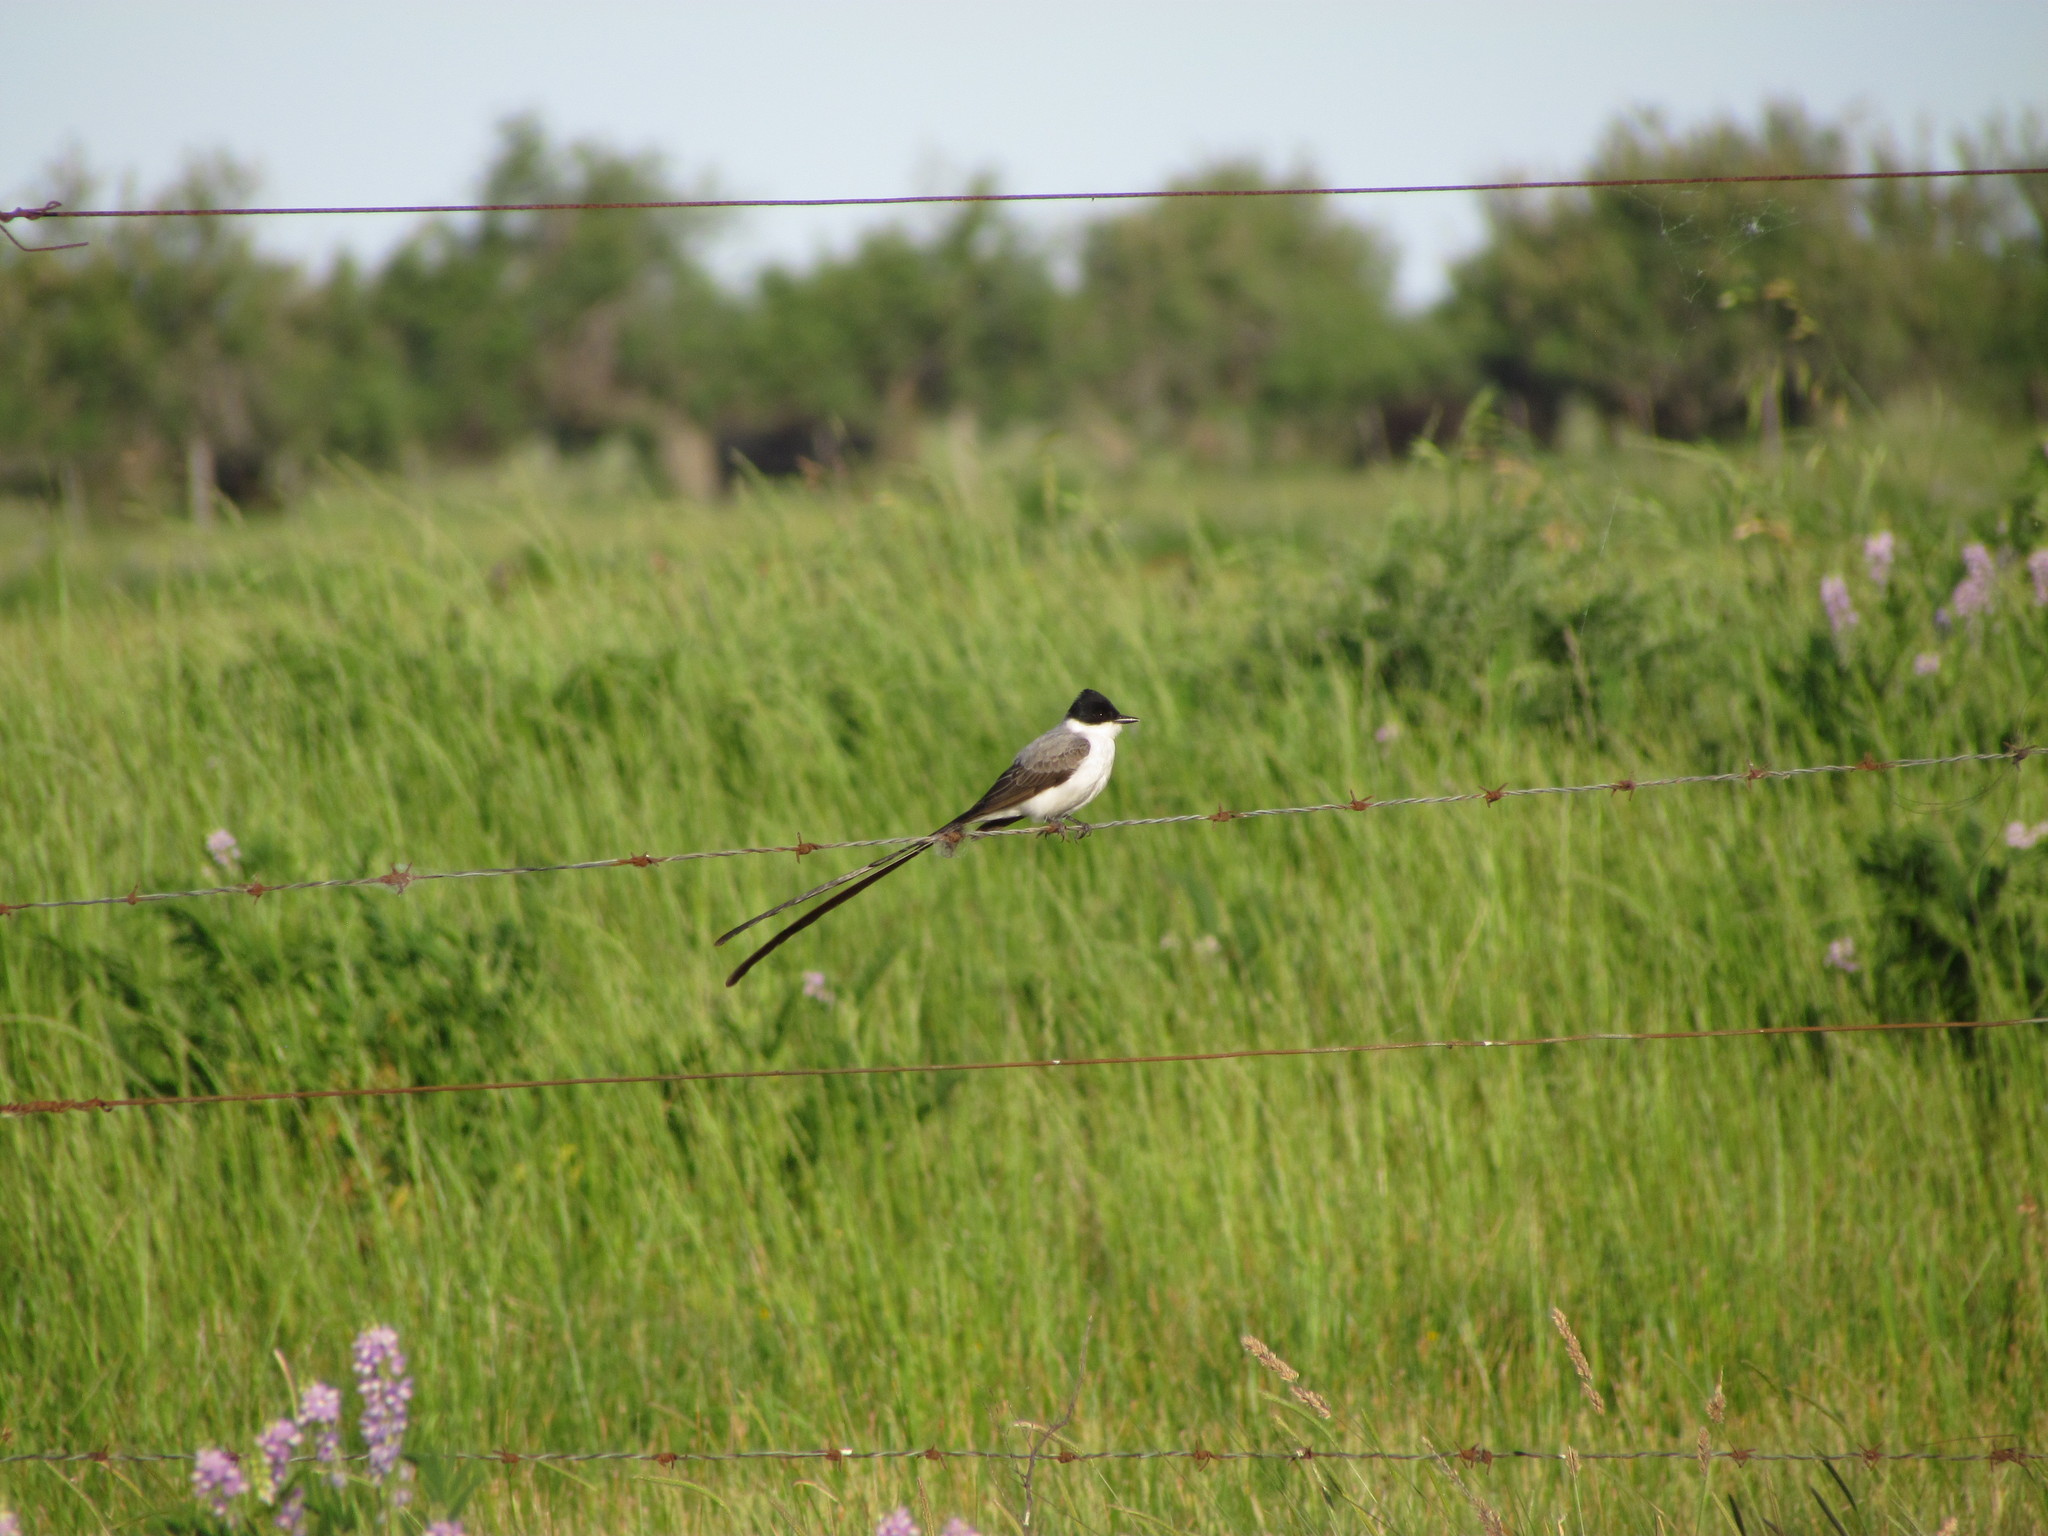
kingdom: Animalia
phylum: Chordata
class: Aves
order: Passeriformes
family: Tyrannidae
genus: Tyrannus
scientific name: Tyrannus savana
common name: Fork-tailed flycatcher
